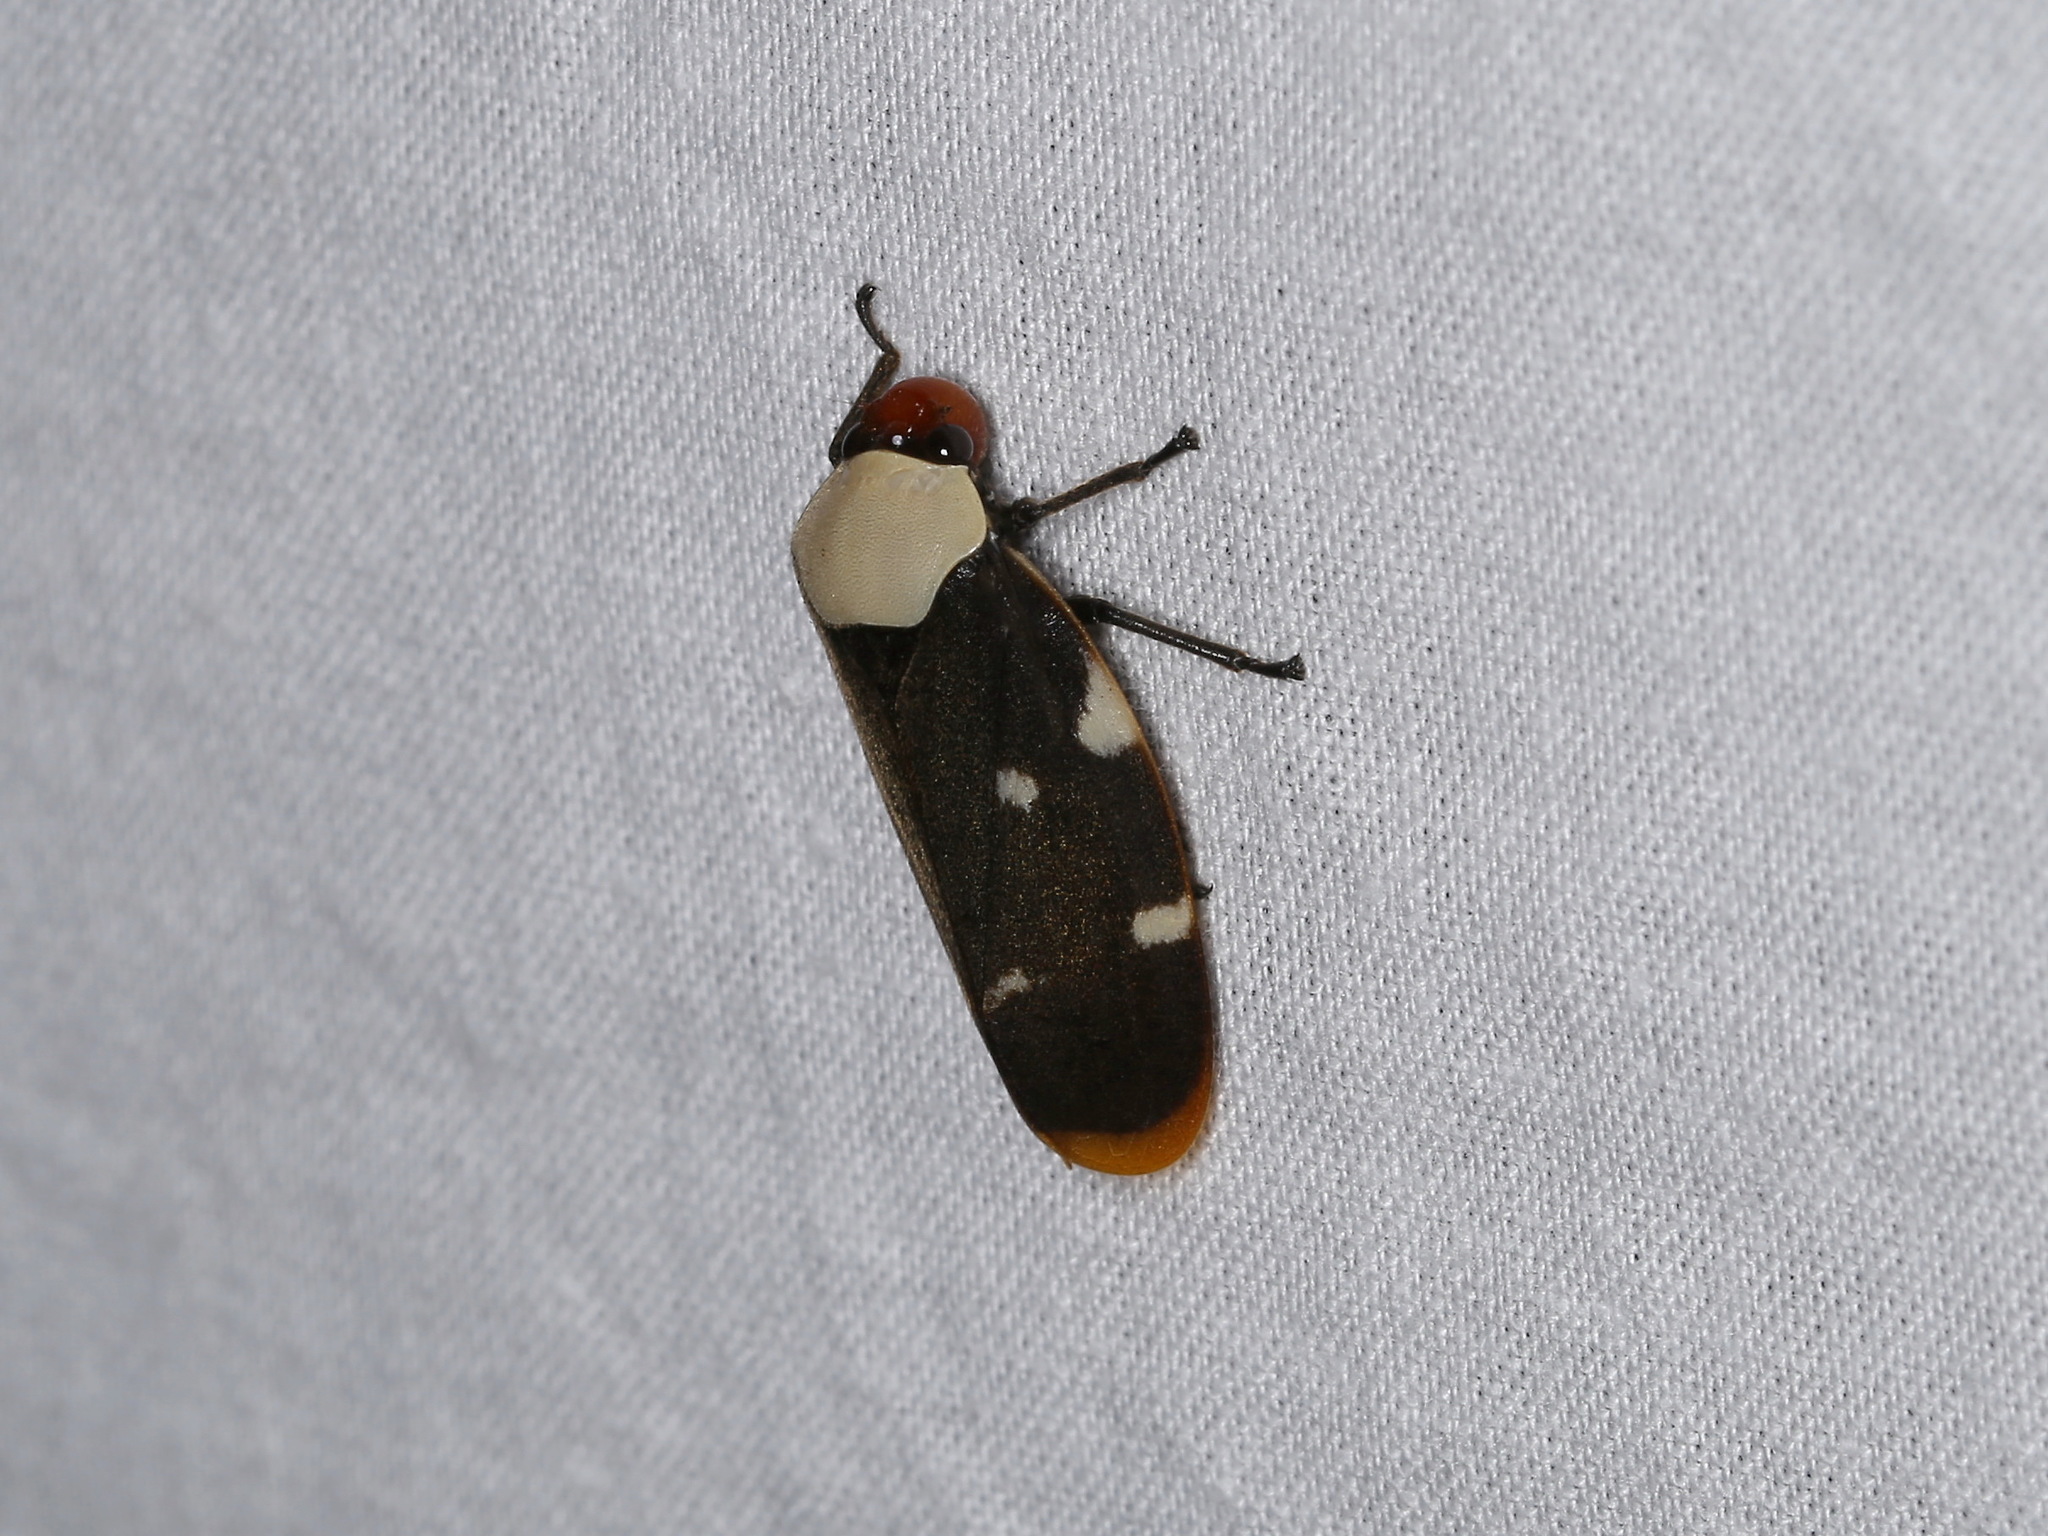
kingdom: Animalia
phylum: Arthropoda
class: Insecta
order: Hemiptera
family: Cercopidae
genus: Phymatostetha
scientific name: Phymatostetha karenia
